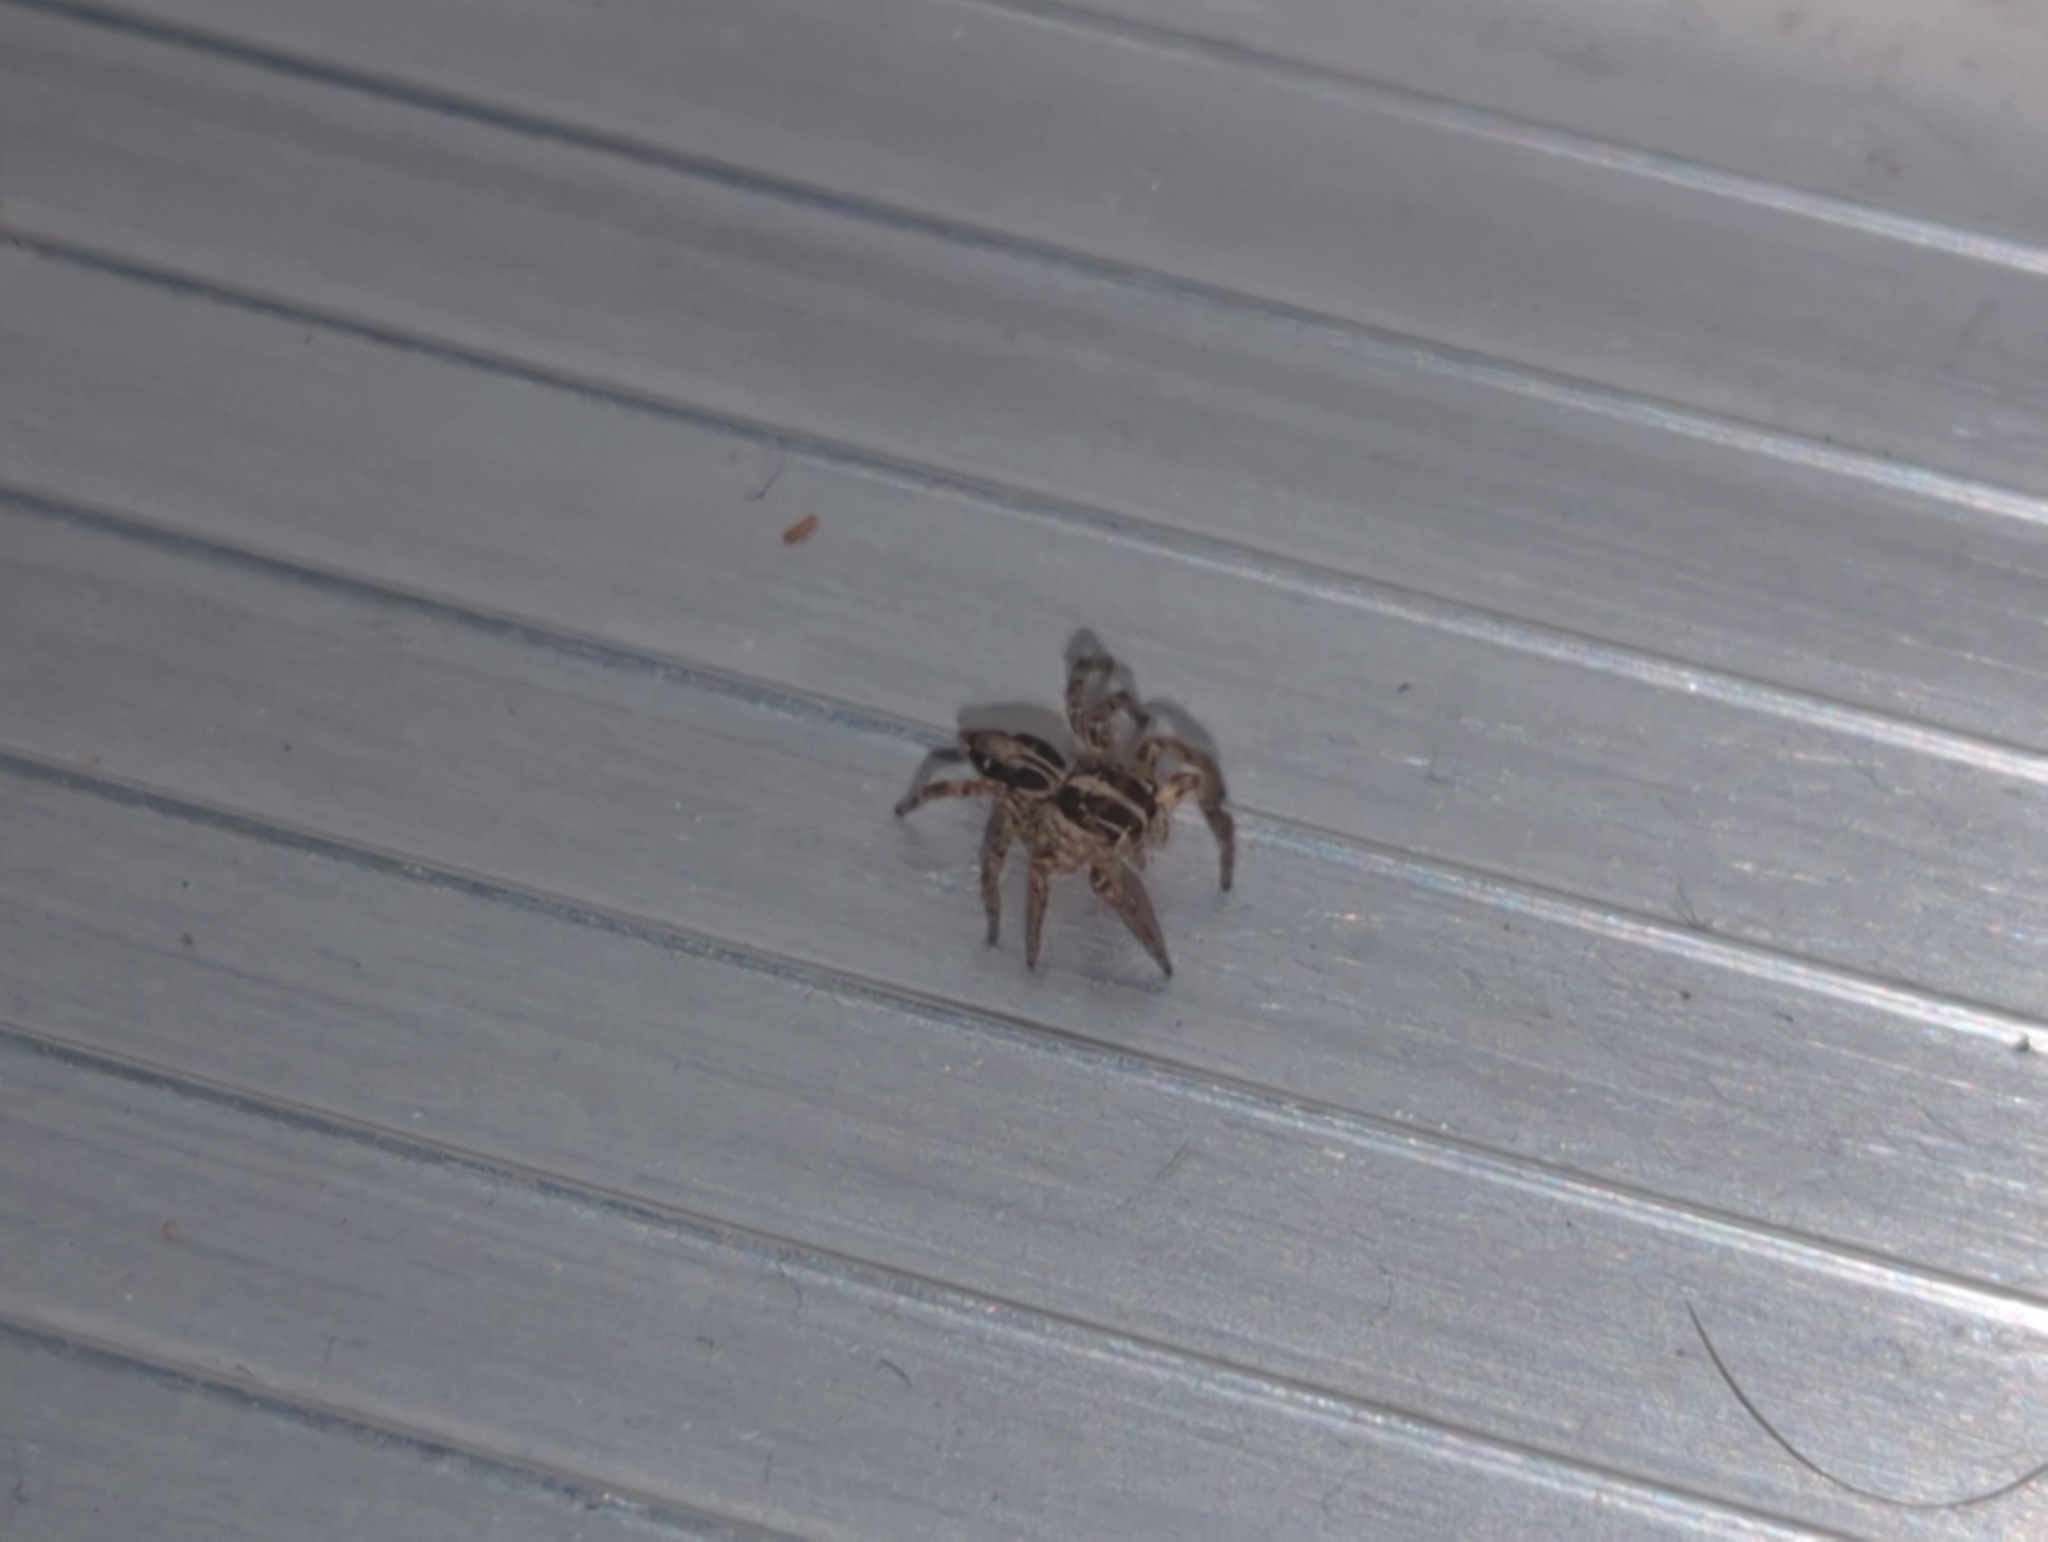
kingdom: Animalia
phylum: Arthropoda
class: Arachnida
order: Araneae
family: Salticidae
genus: Plexippus
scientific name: Plexippus paykulli
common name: Pantropical jumper
